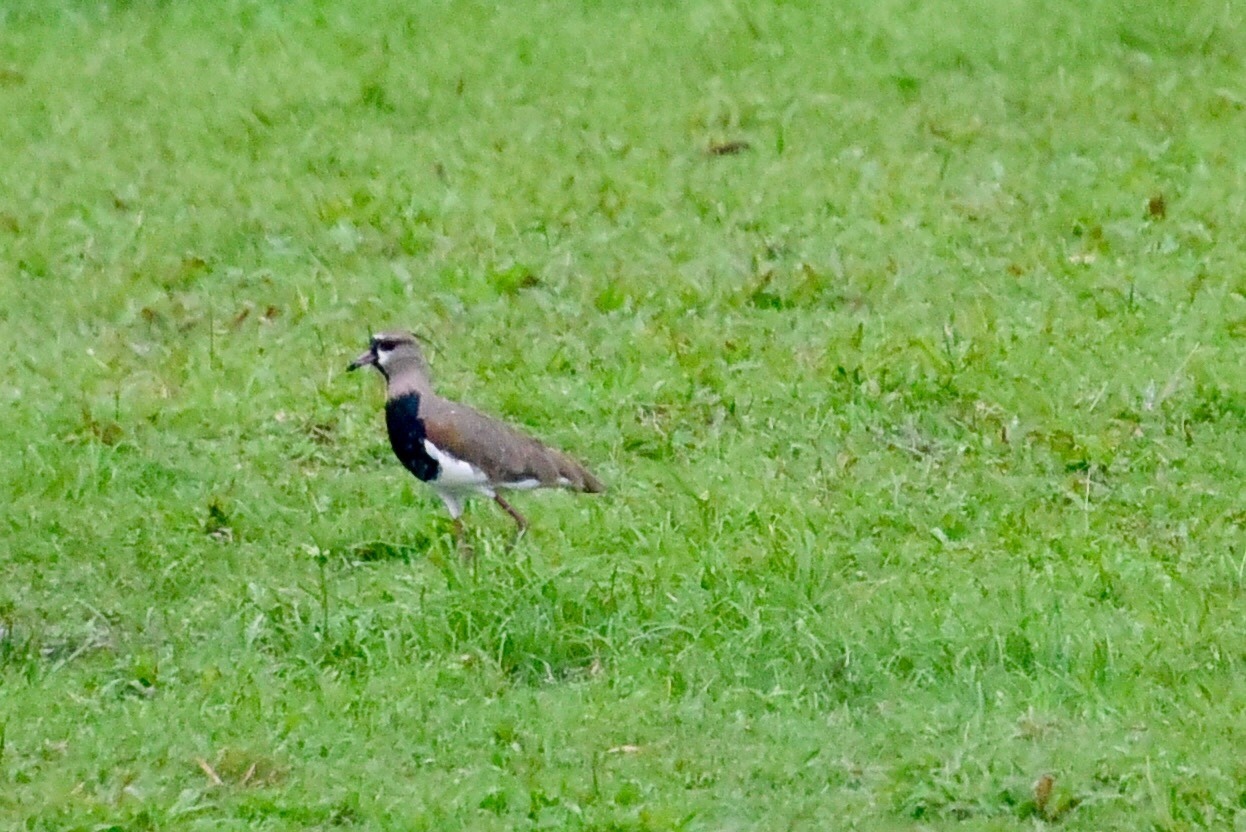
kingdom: Animalia
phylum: Chordata
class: Aves
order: Charadriiformes
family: Charadriidae
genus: Vanellus
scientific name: Vanellus chilensis
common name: Southern lapwing
